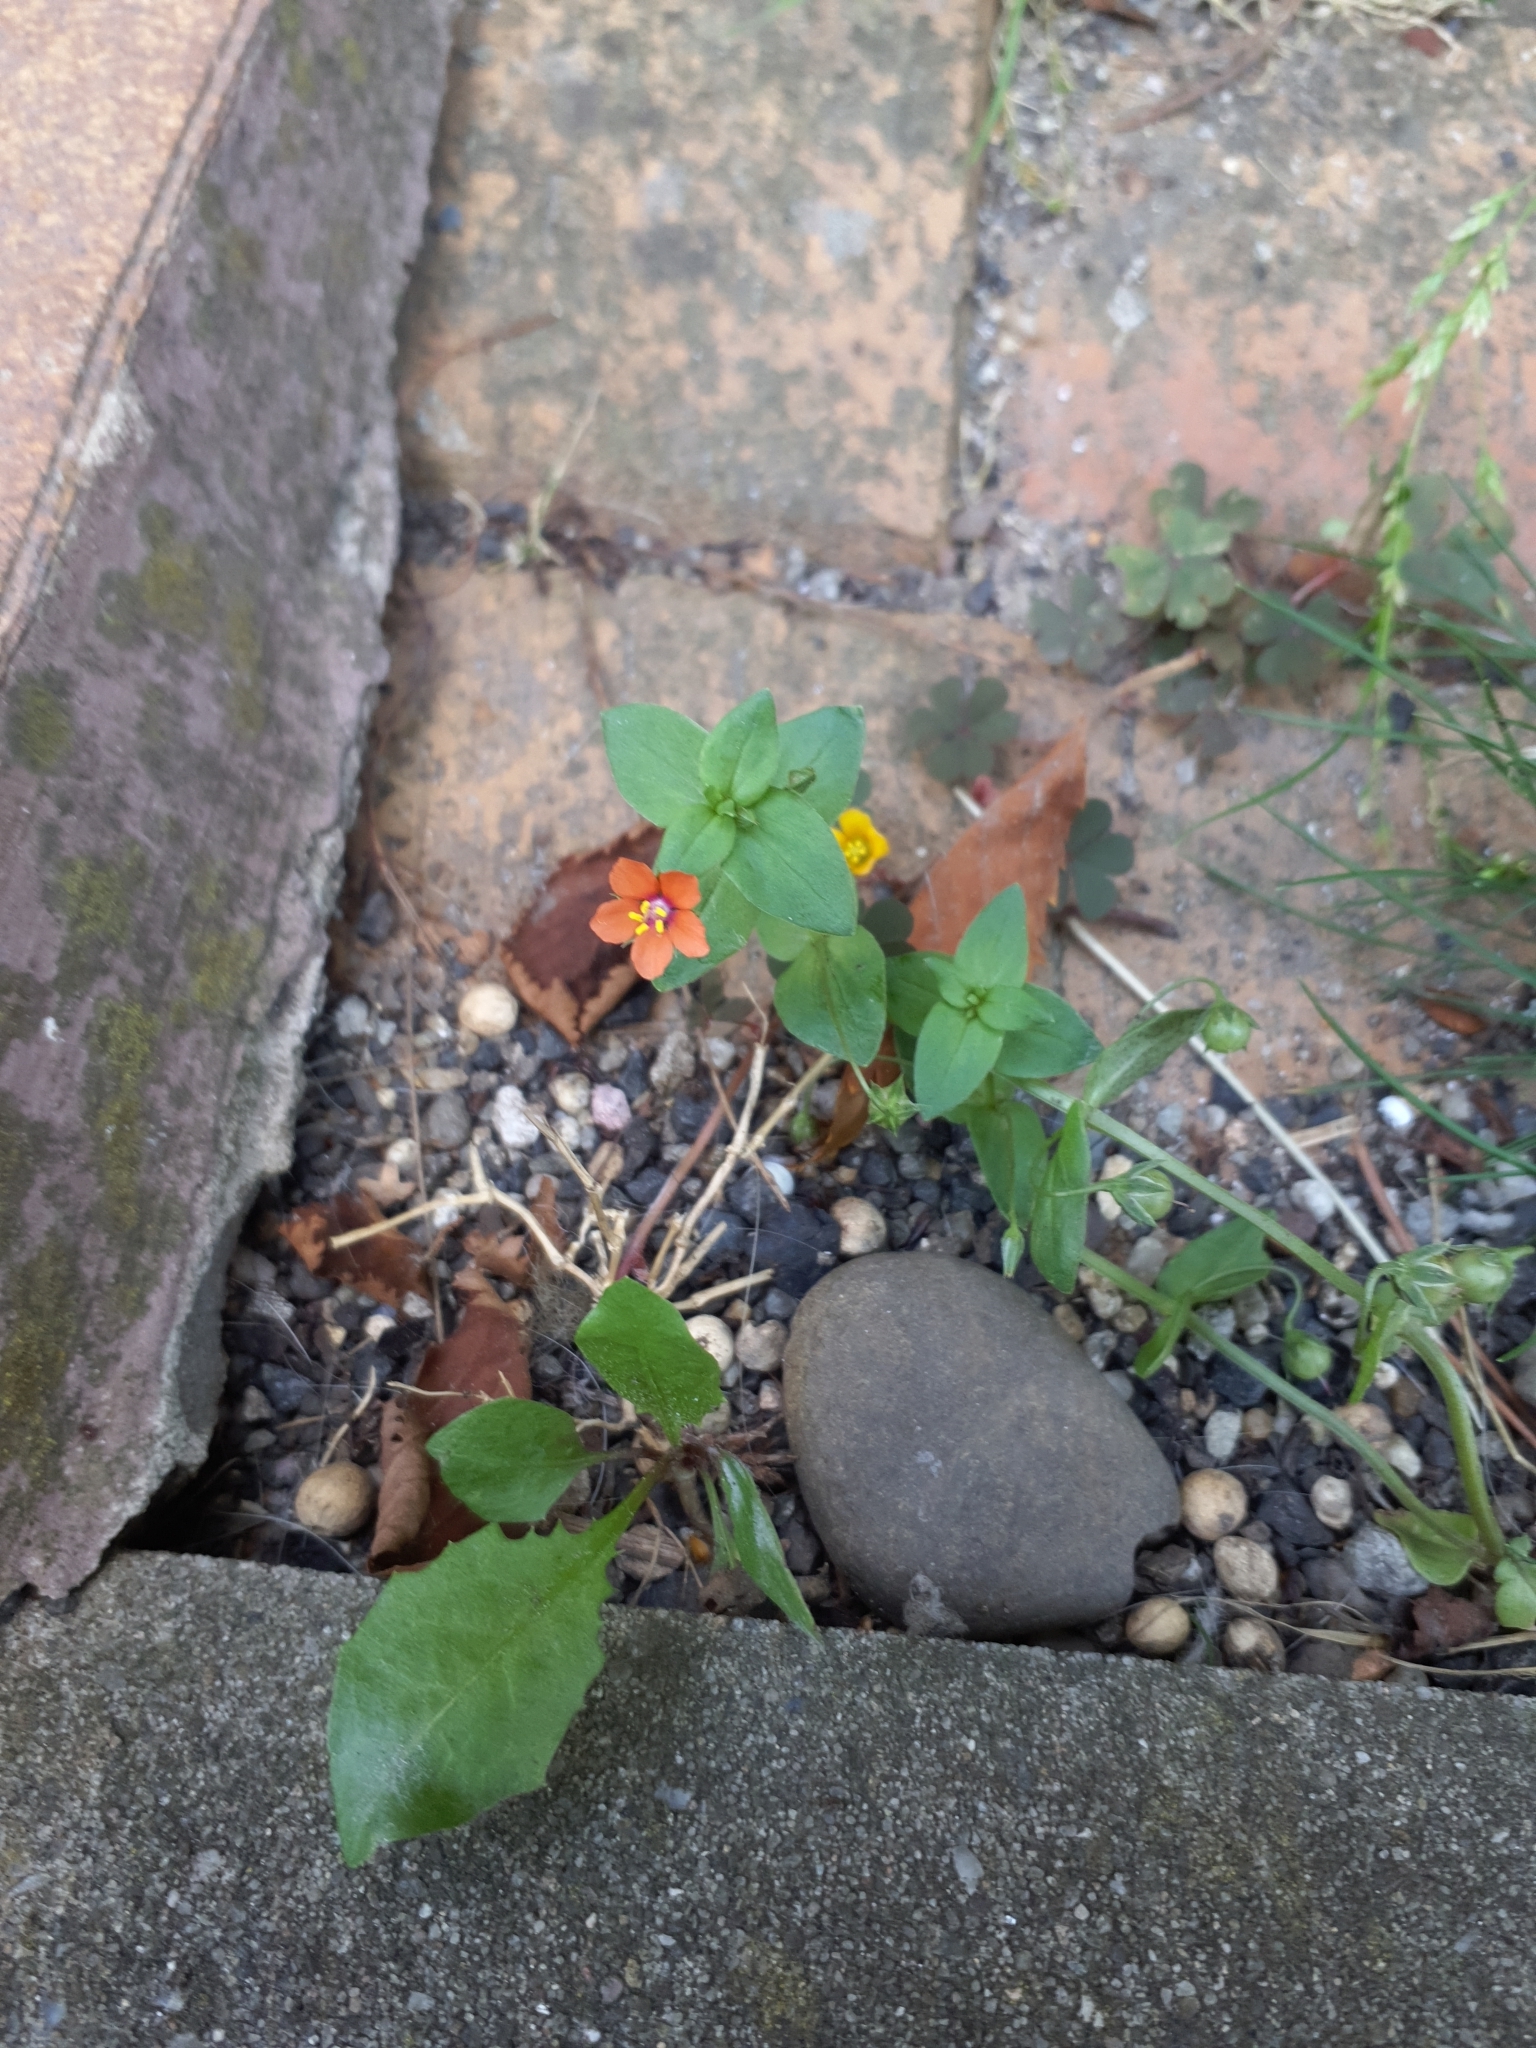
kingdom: Plantae
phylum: Tracheophyta
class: Magnoliopsida
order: Ericales
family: Primulaceae
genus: Lysimachia
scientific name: Lysimachia arvensis
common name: Scarlet pimpernel
